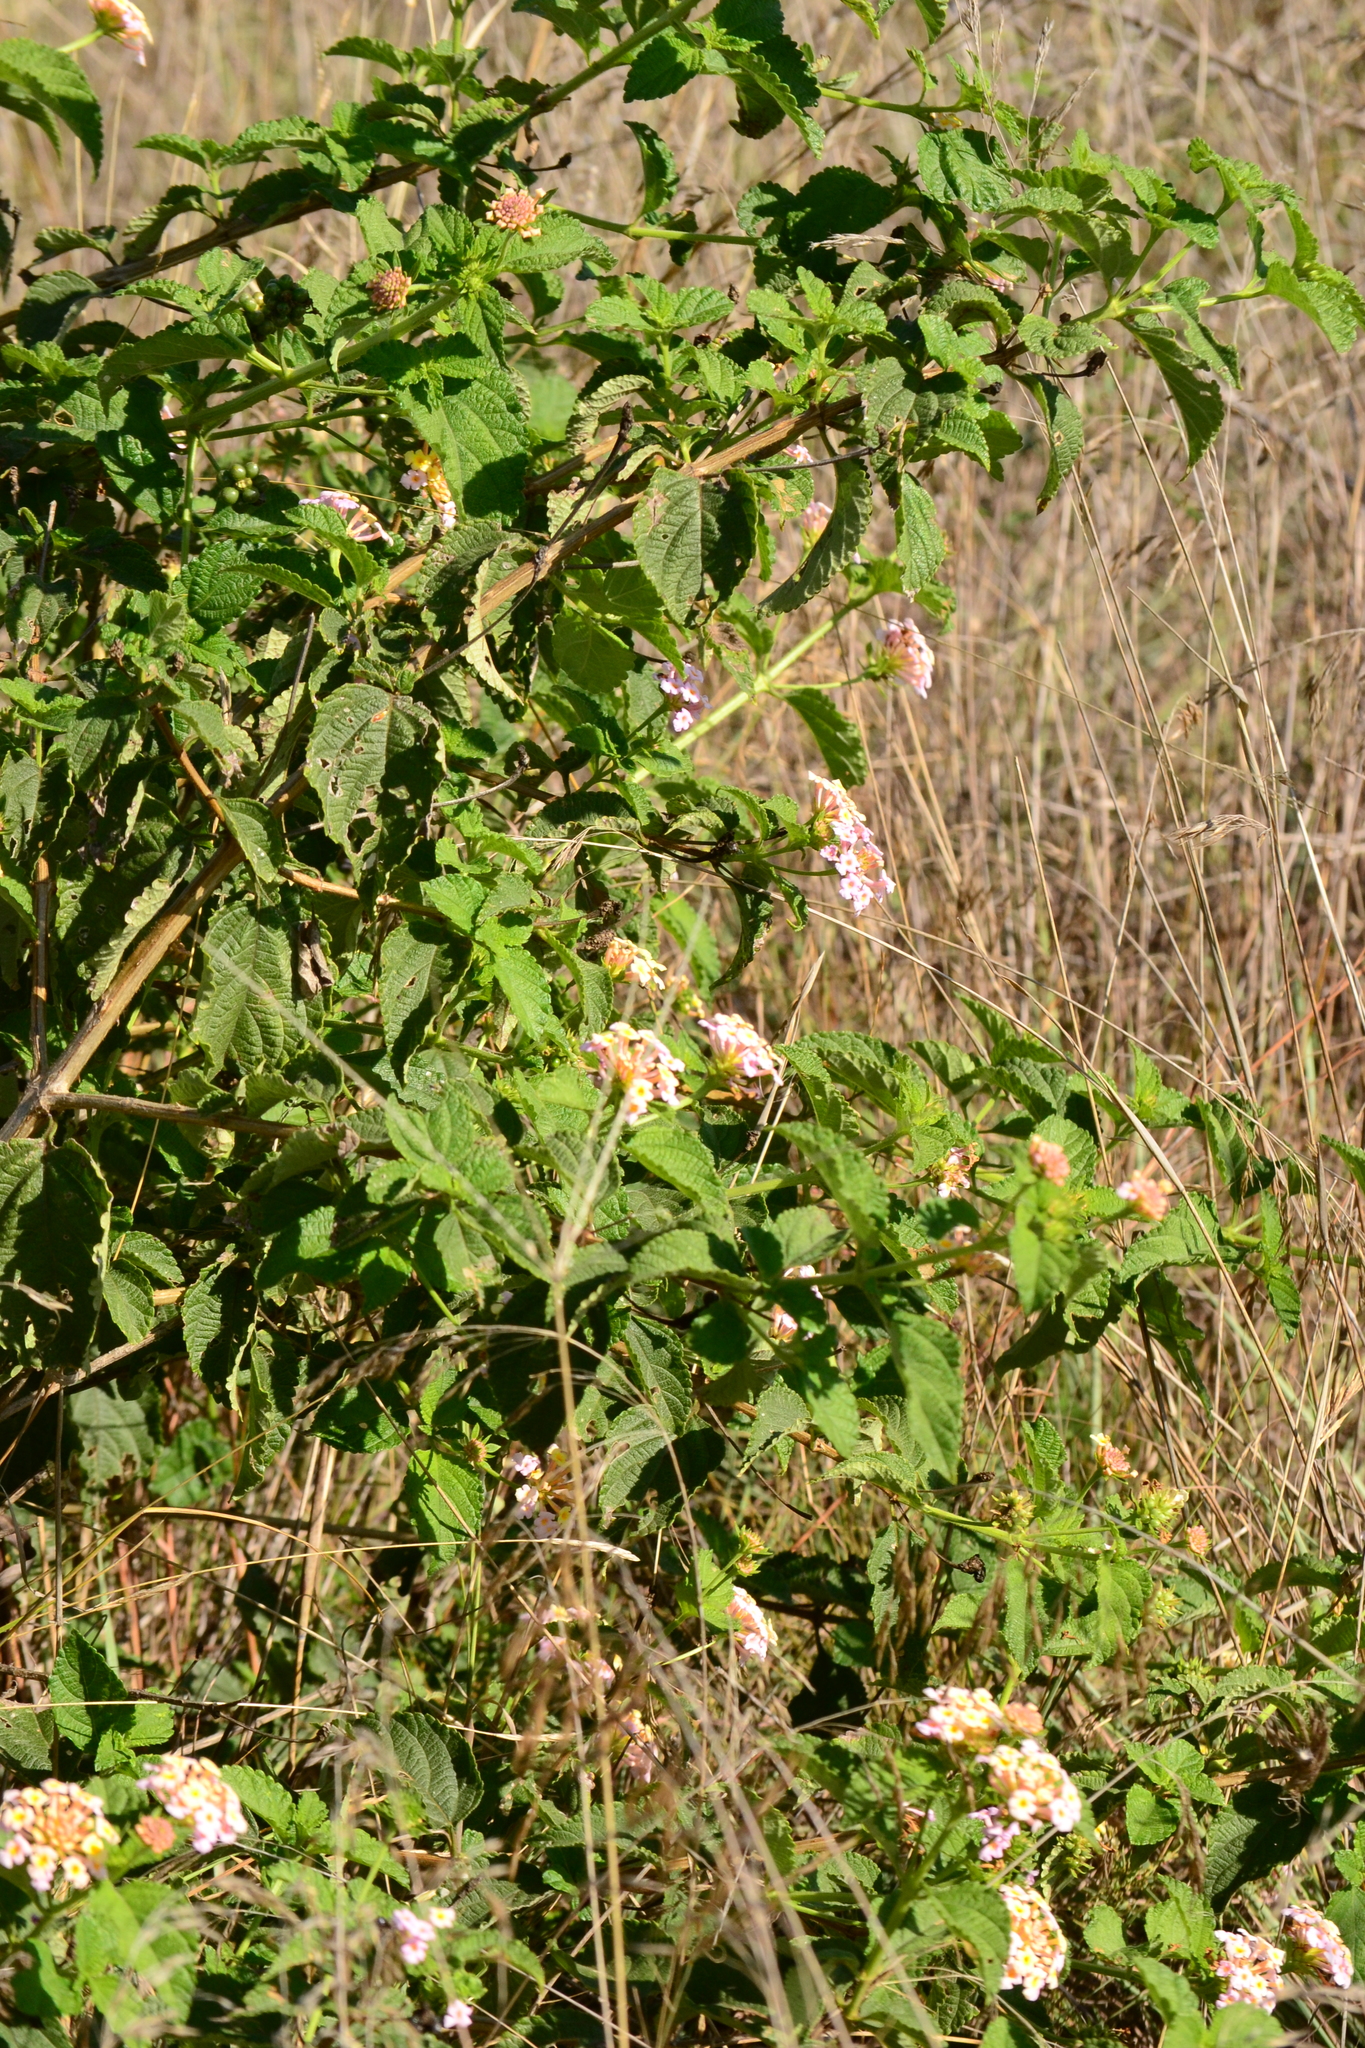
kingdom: Plantae
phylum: Tracheophyta
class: Magnoliopsida
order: Lamiales
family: Verbenaceae
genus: Lantana
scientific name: Lantana camara
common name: Lantana
